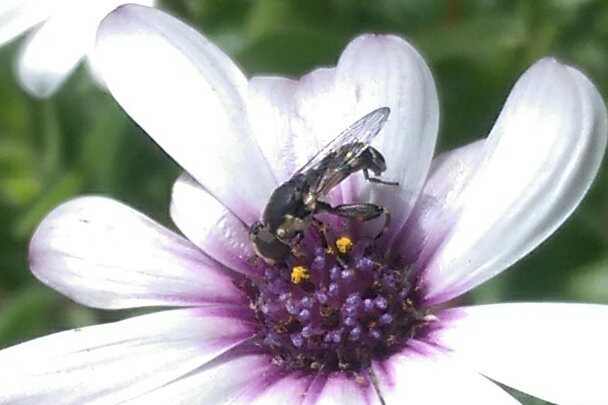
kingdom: Animalia
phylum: Arthropoda
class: Insecta
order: Diptera
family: Syrphidae
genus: Syritta
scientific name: Syritta pipiens
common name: Hover fly
